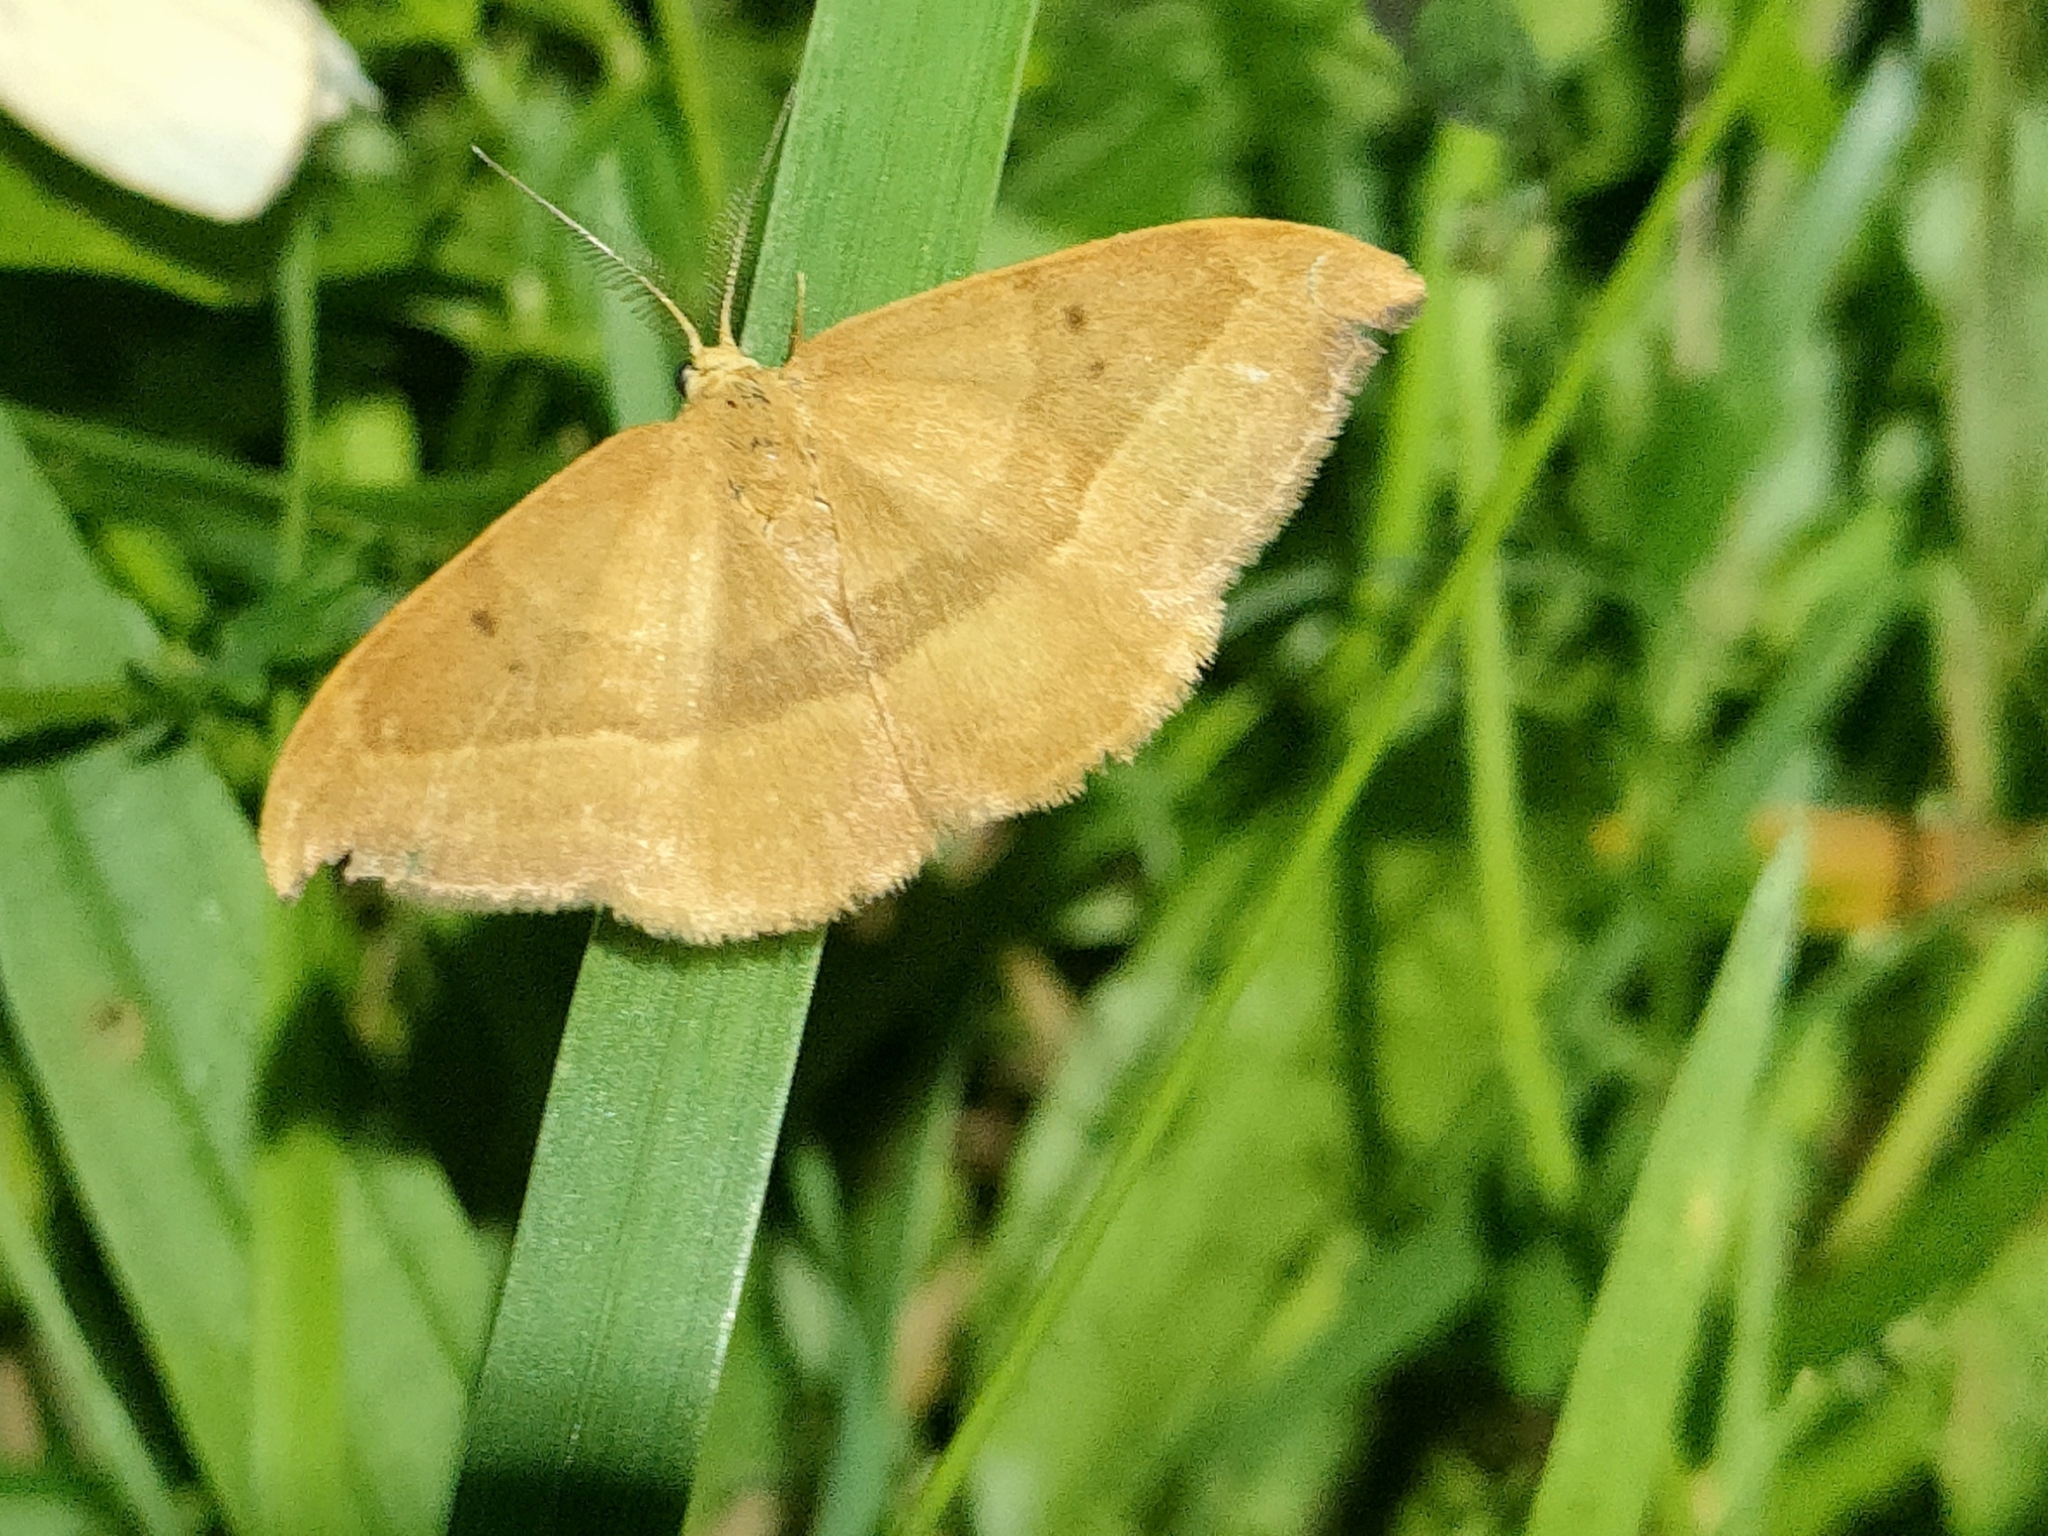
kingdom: Animalia
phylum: Arthropoda
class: Insecta
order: Lepidoptera
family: Drepanidae
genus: Watsonalla
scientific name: Watsonalla cultraria
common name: Barred hook-tip
